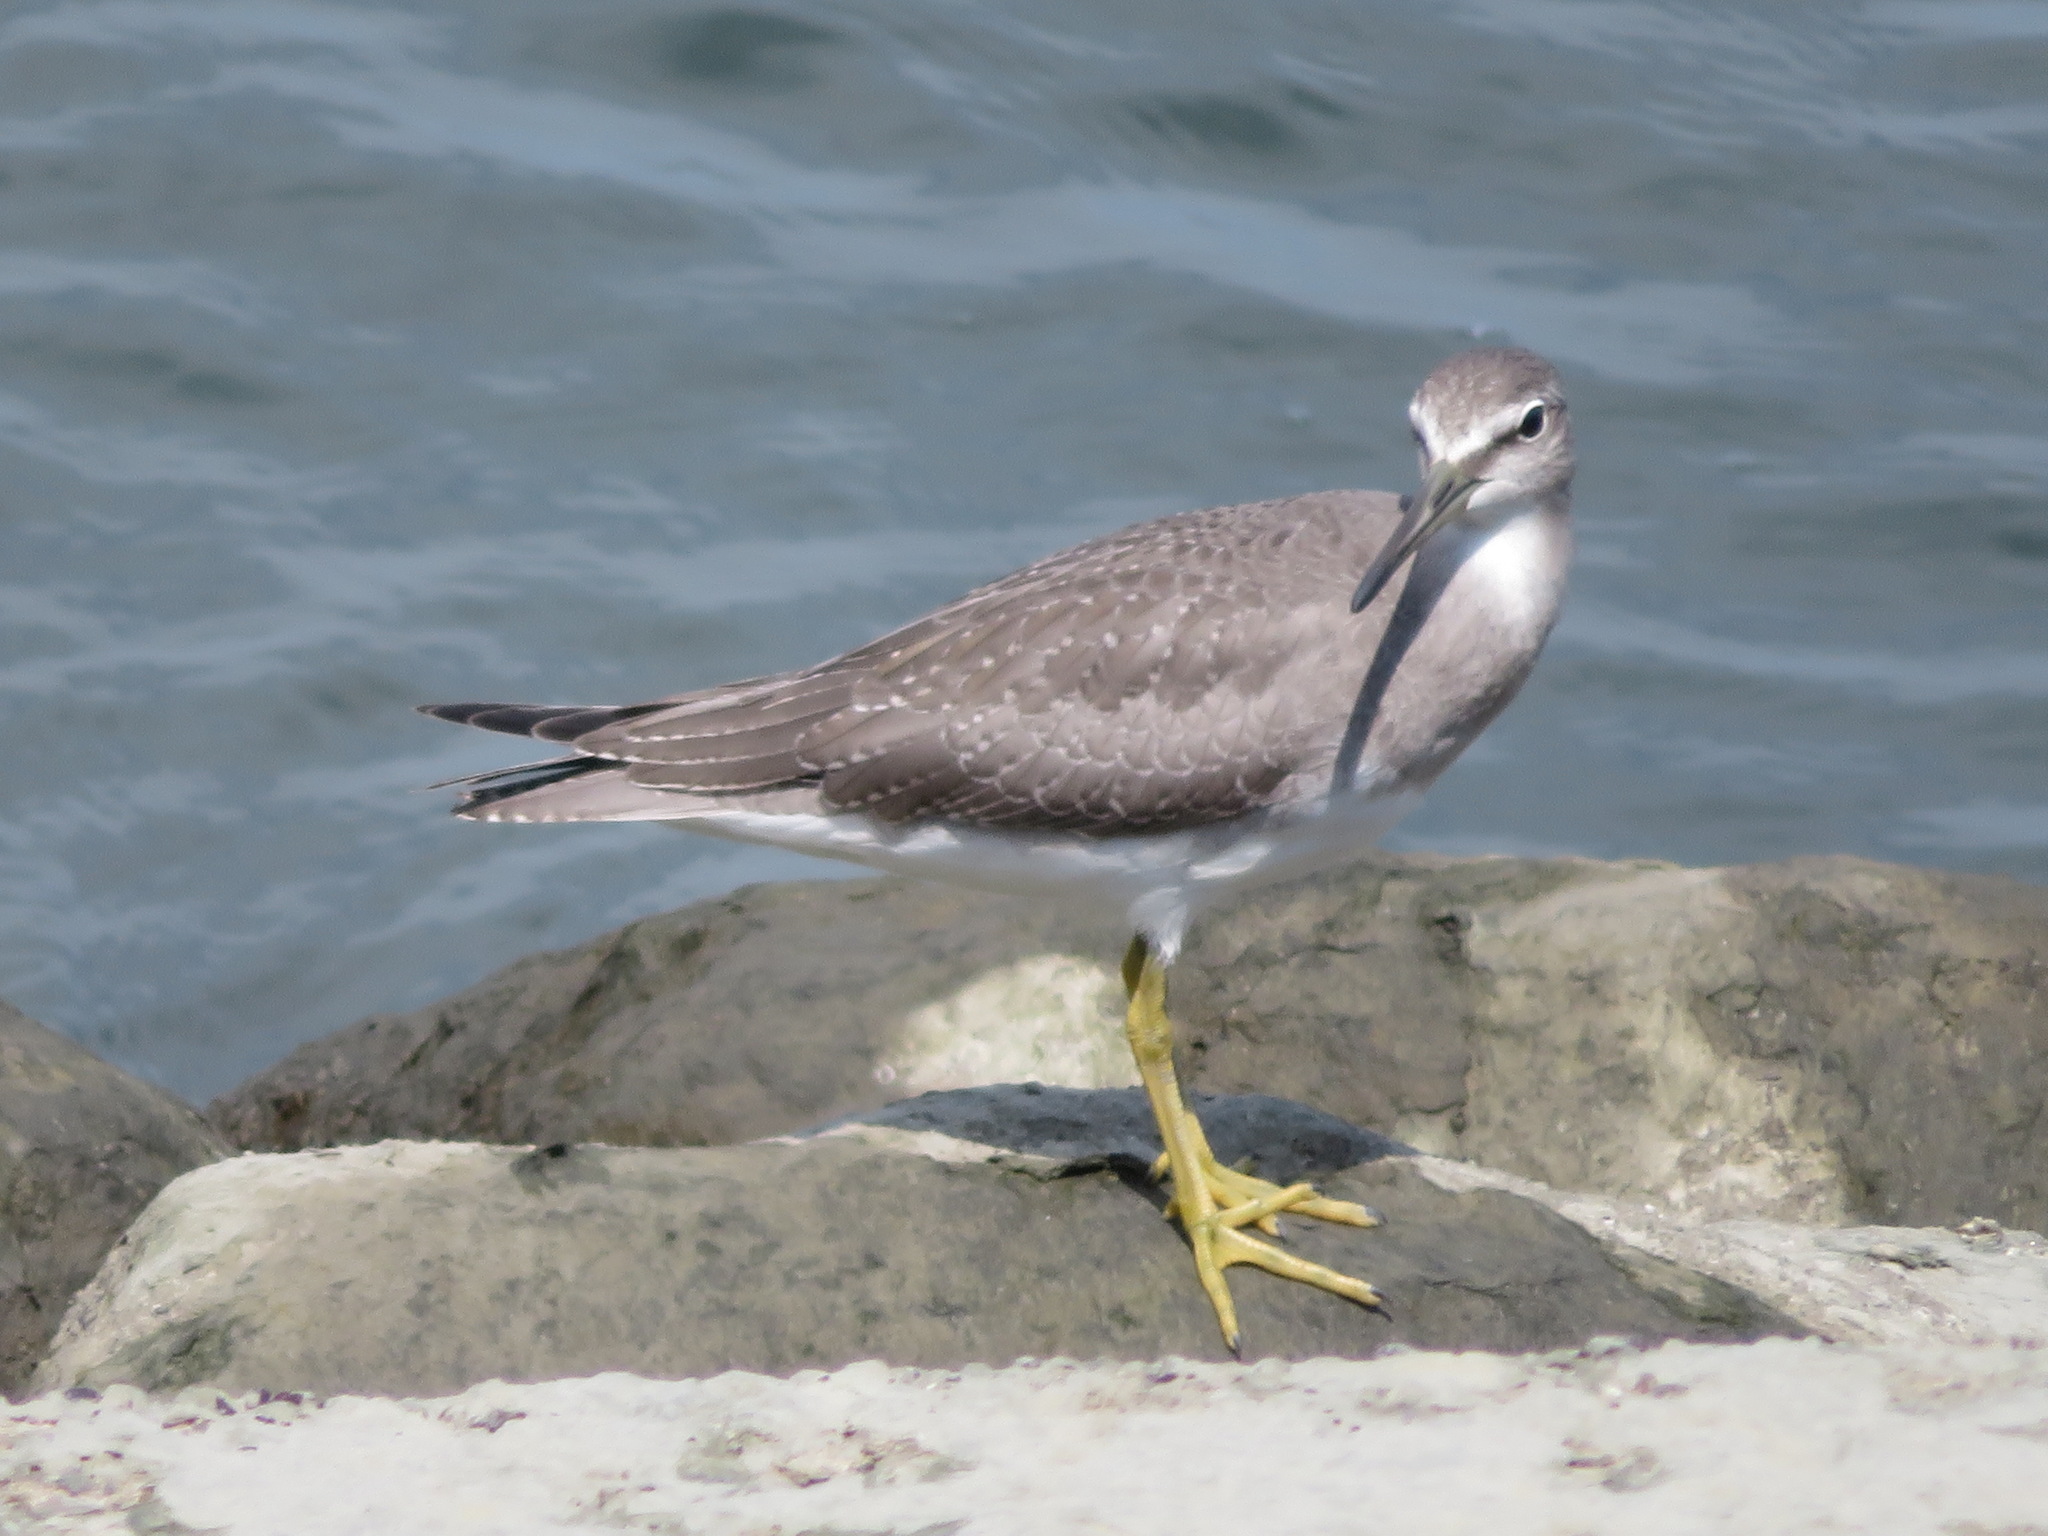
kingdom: Animalia
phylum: Chordata
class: Aves
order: Charadriiformes
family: Scolopacidae
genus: Tringa
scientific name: Tringa brevipes
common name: Grey-tailed tattler
